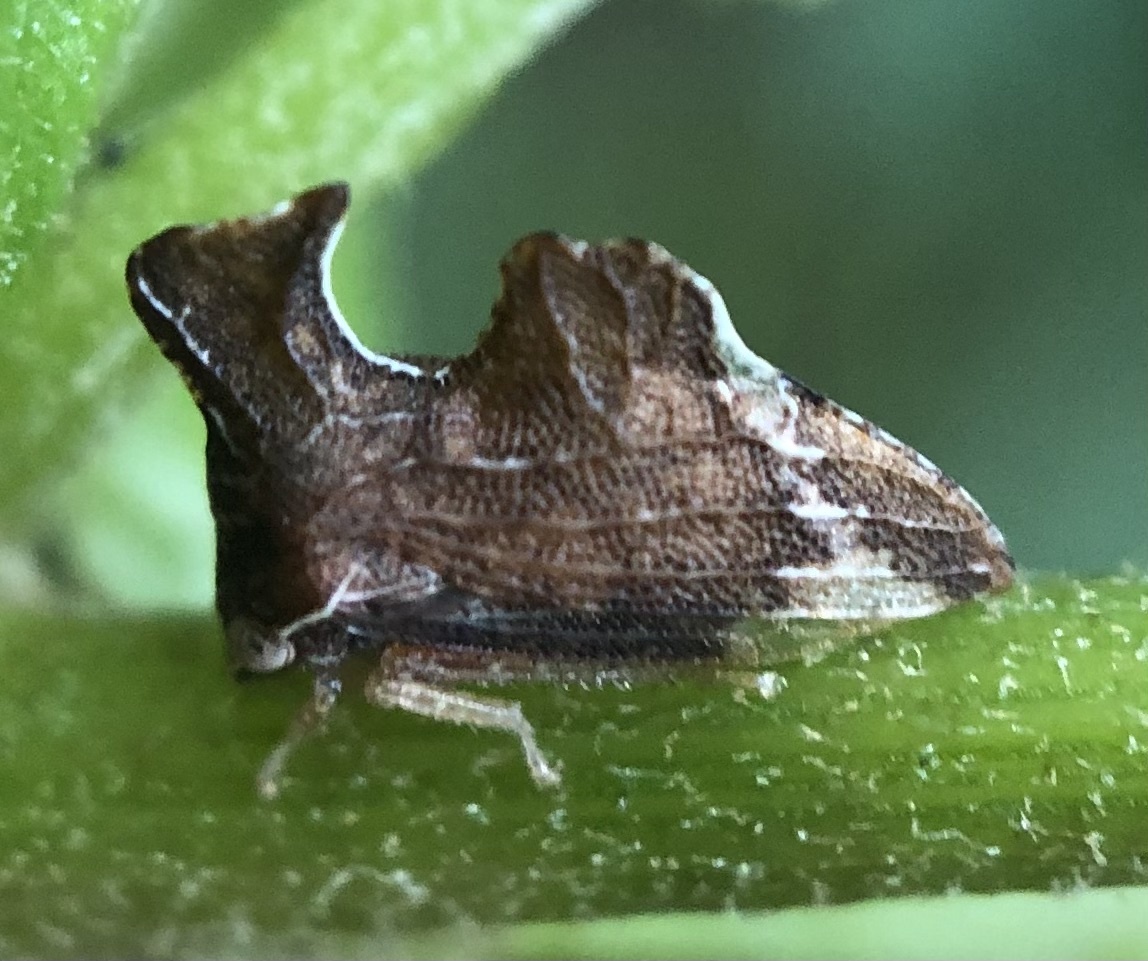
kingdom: Animalia
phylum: Arthropoda
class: Insecta
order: Hemiptera
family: Membracidae
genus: Entylia
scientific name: Entylia carinata
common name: Keeled treehopper
